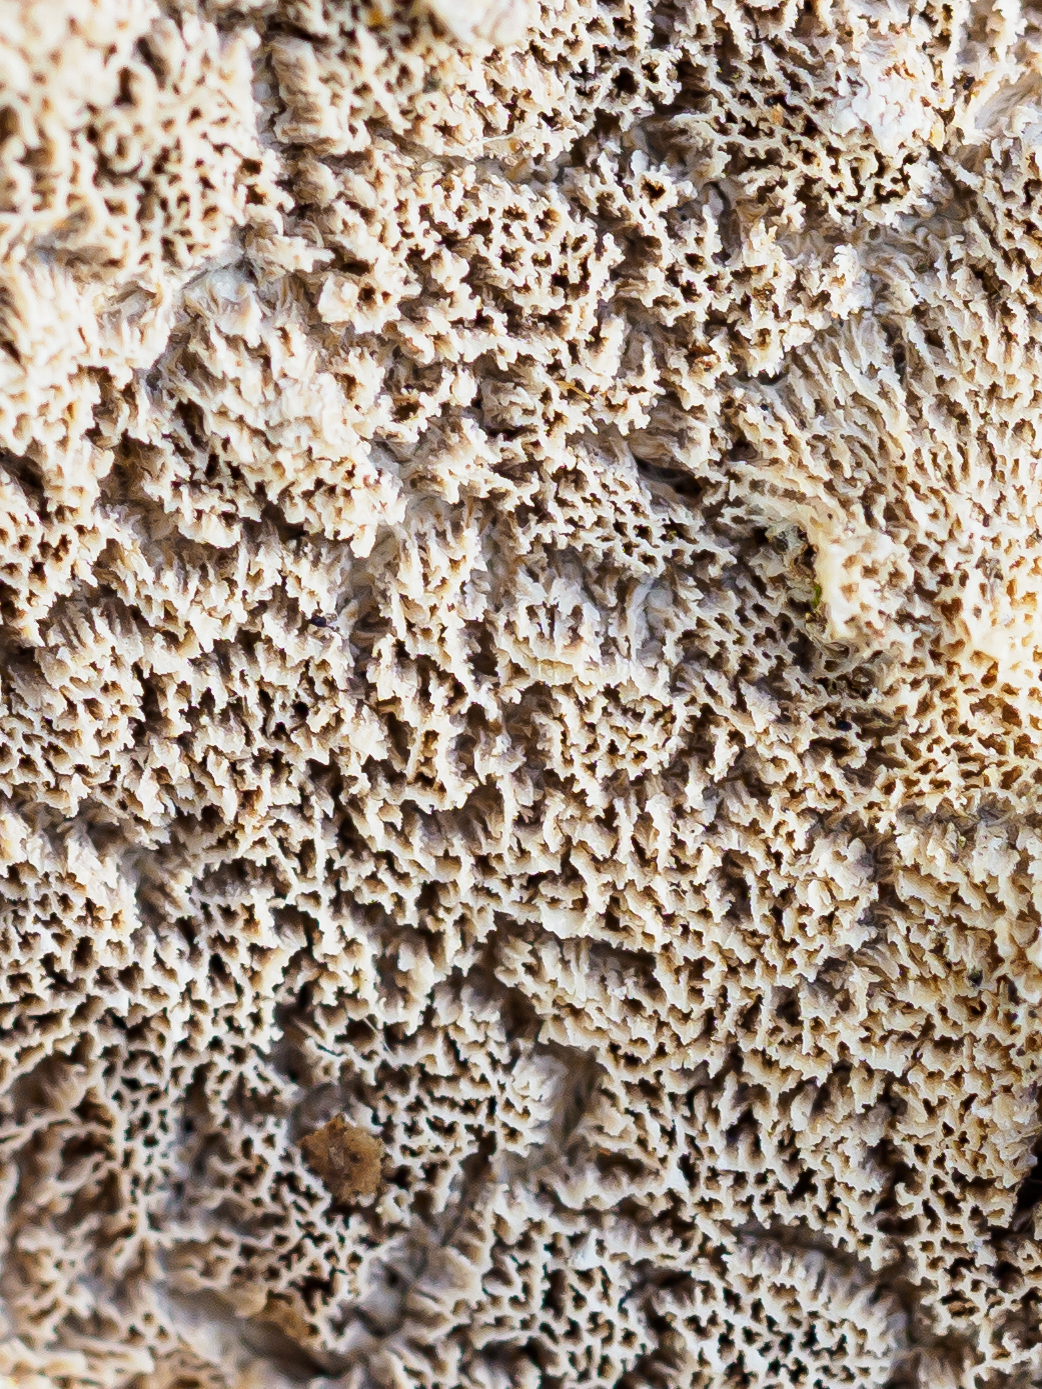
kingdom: Fungi
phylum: Basidiomycota
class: Agaricomycetes
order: Polyporales
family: Irpicaceae
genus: Irpex
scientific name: Irpex lacteus
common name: Milk-white toothed polypore
